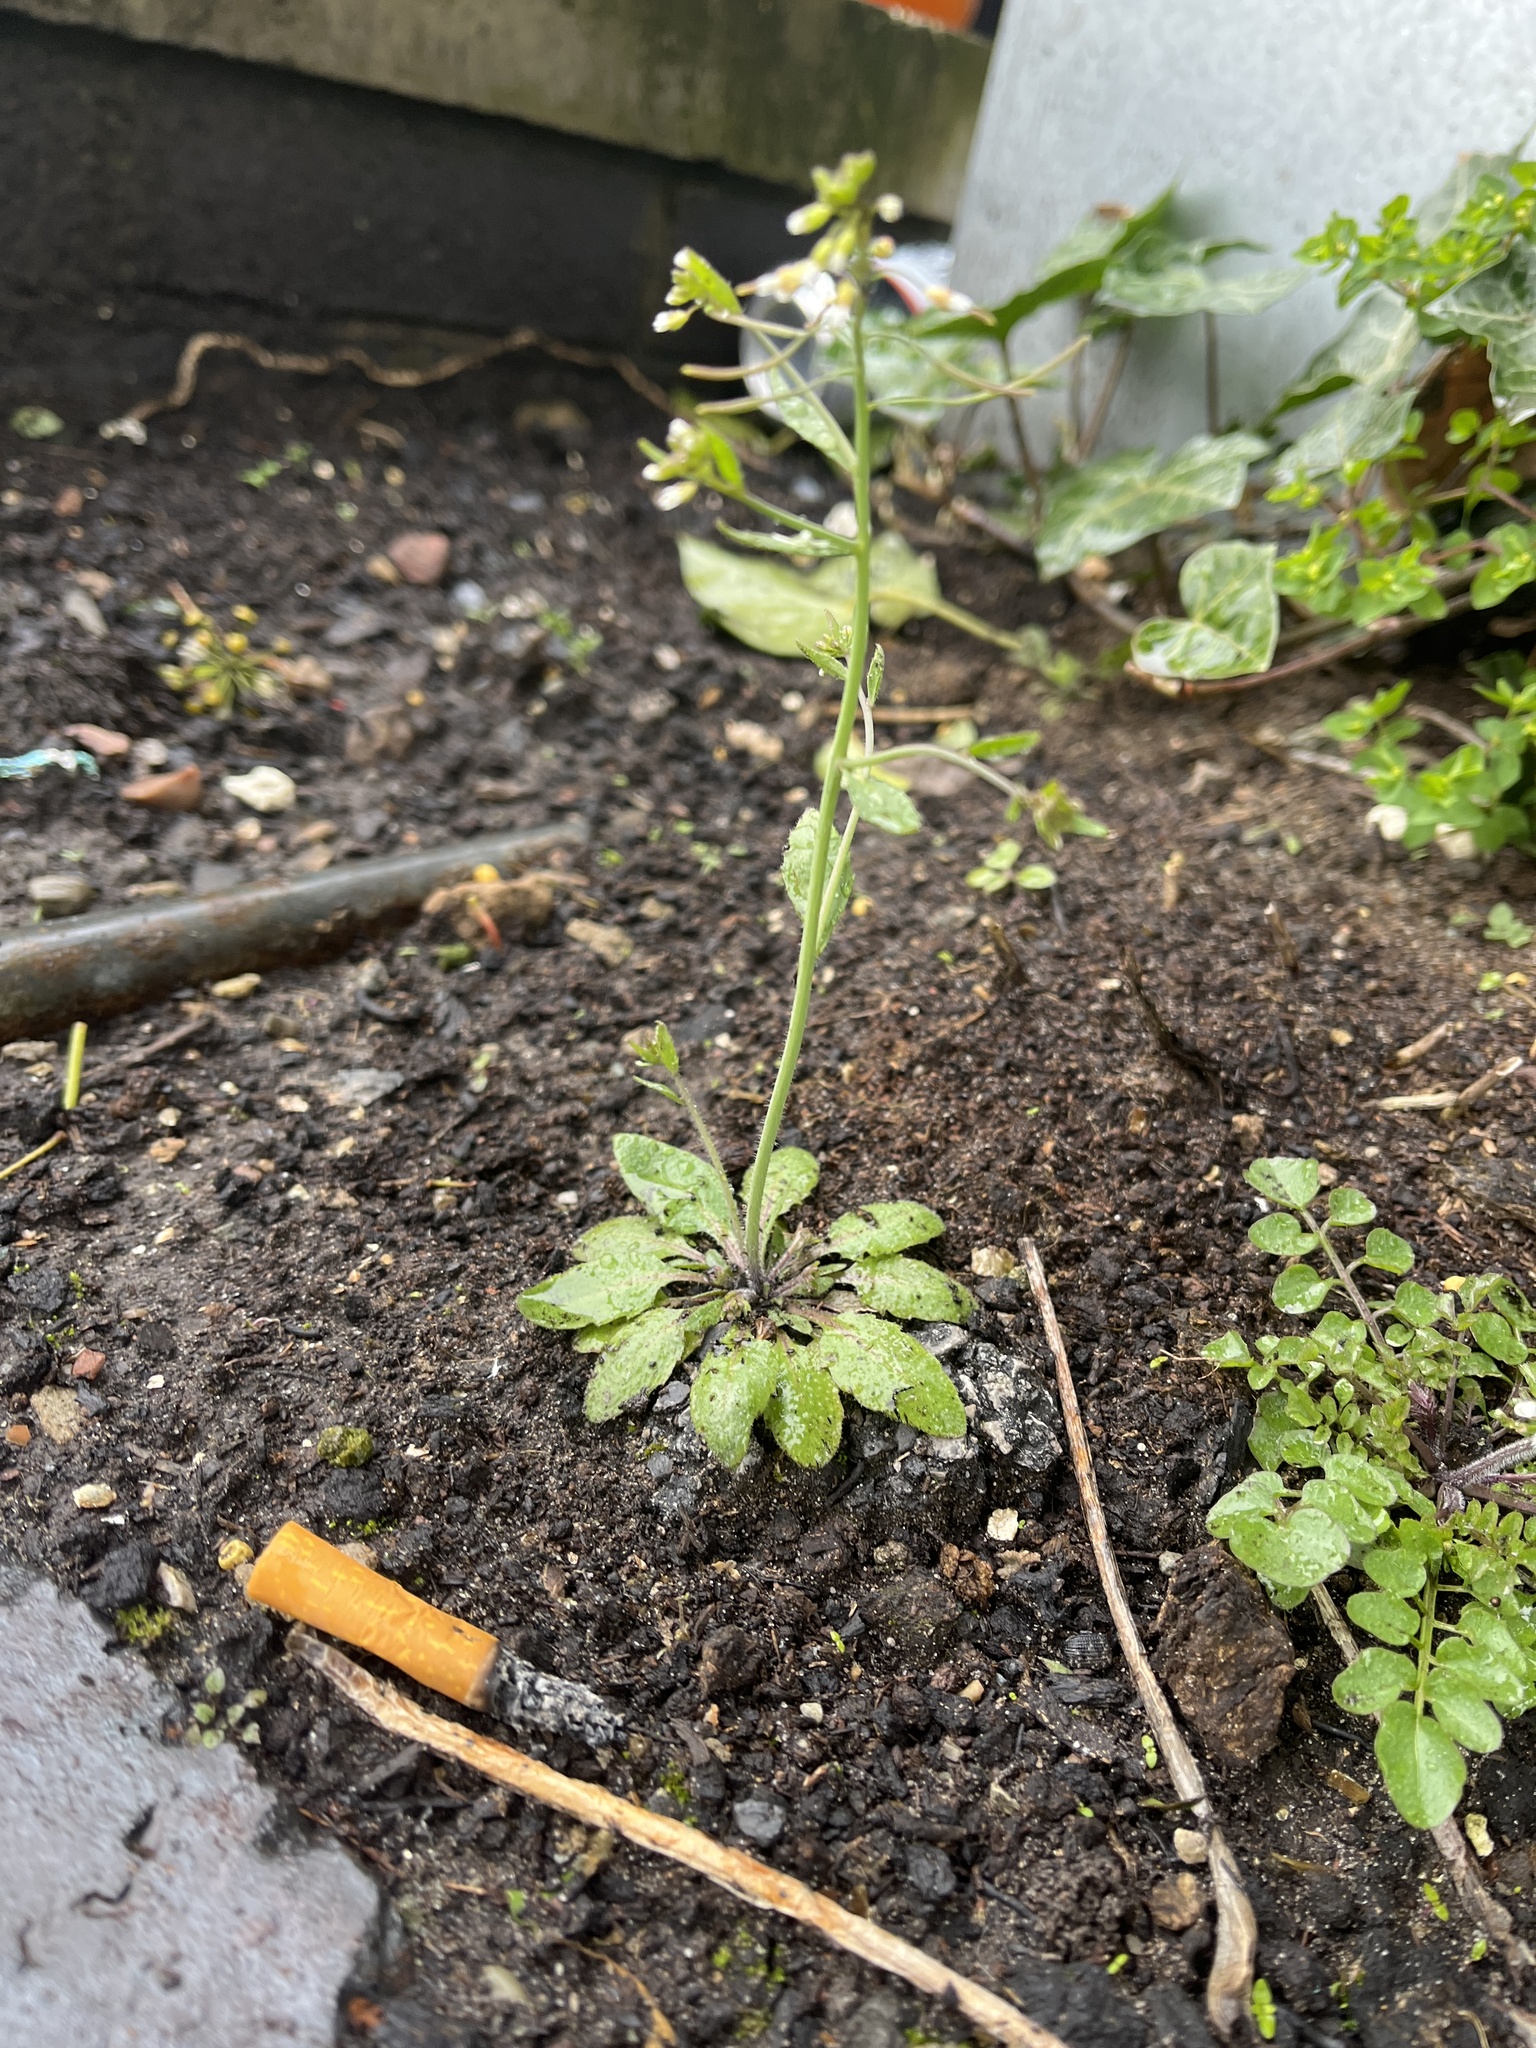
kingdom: Plantae
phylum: Tracheophyta
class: Magnoliopsida
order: Brassicales
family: Brassicaceae
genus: Arabidopsis
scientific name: Arabidopsis thaliana
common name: Thale cress
